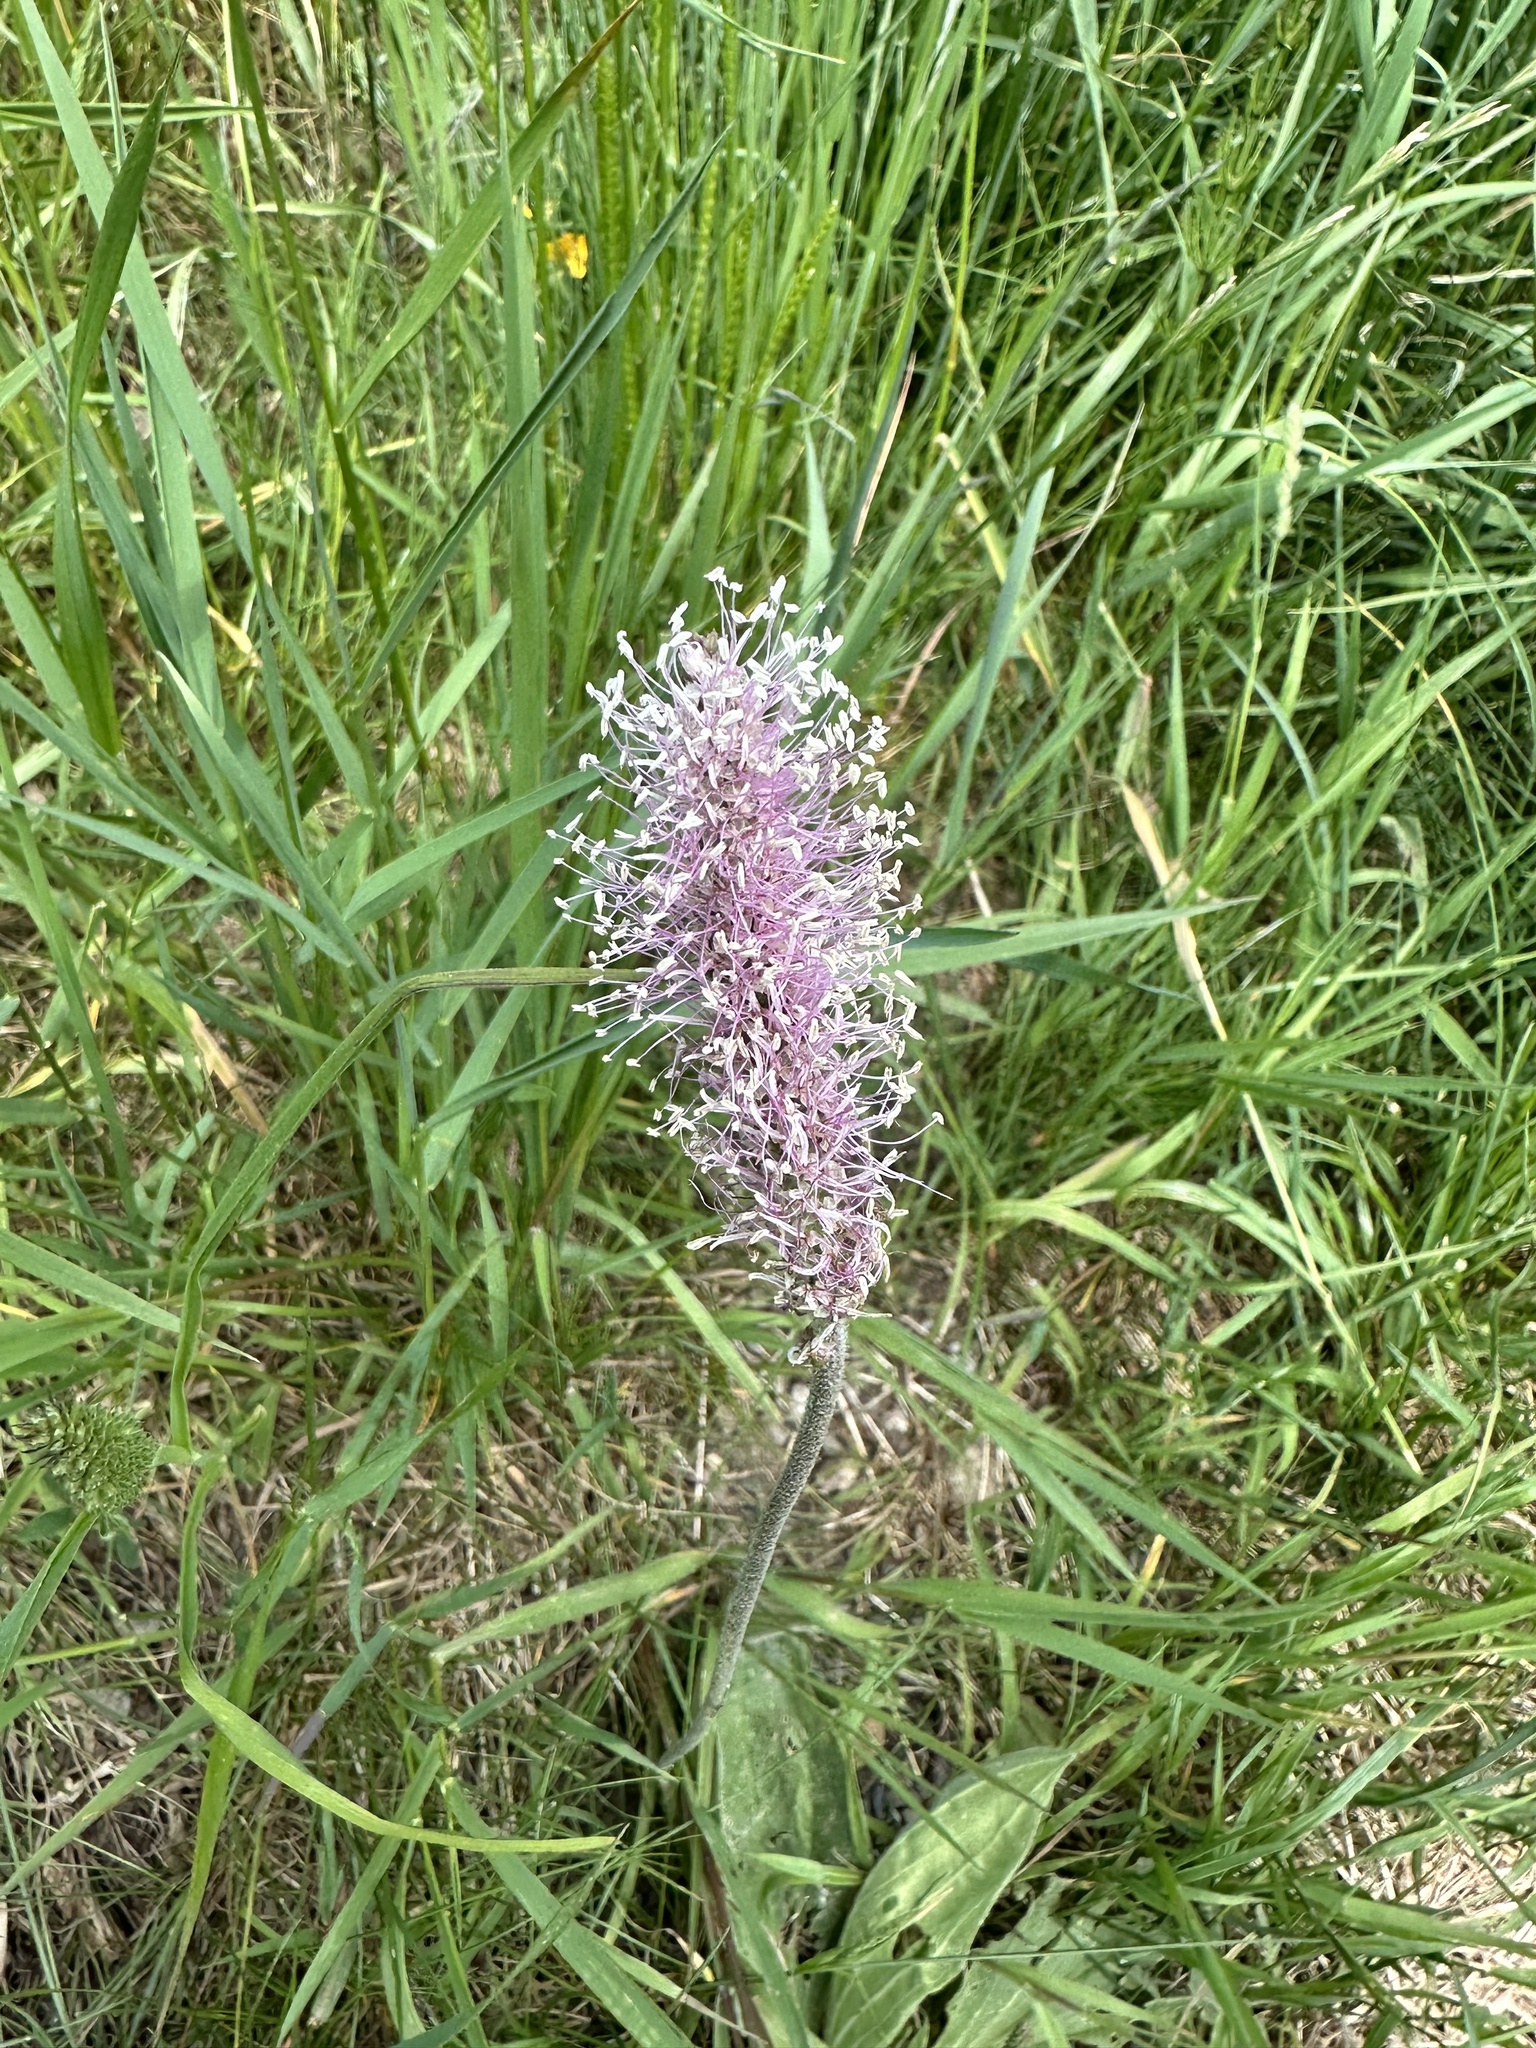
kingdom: Plantae
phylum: Tracheophyta
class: Magnoliopsida
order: Lamiales
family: Plantaginaceae
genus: Plantago
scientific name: Plantago media
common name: Hoary plantain
